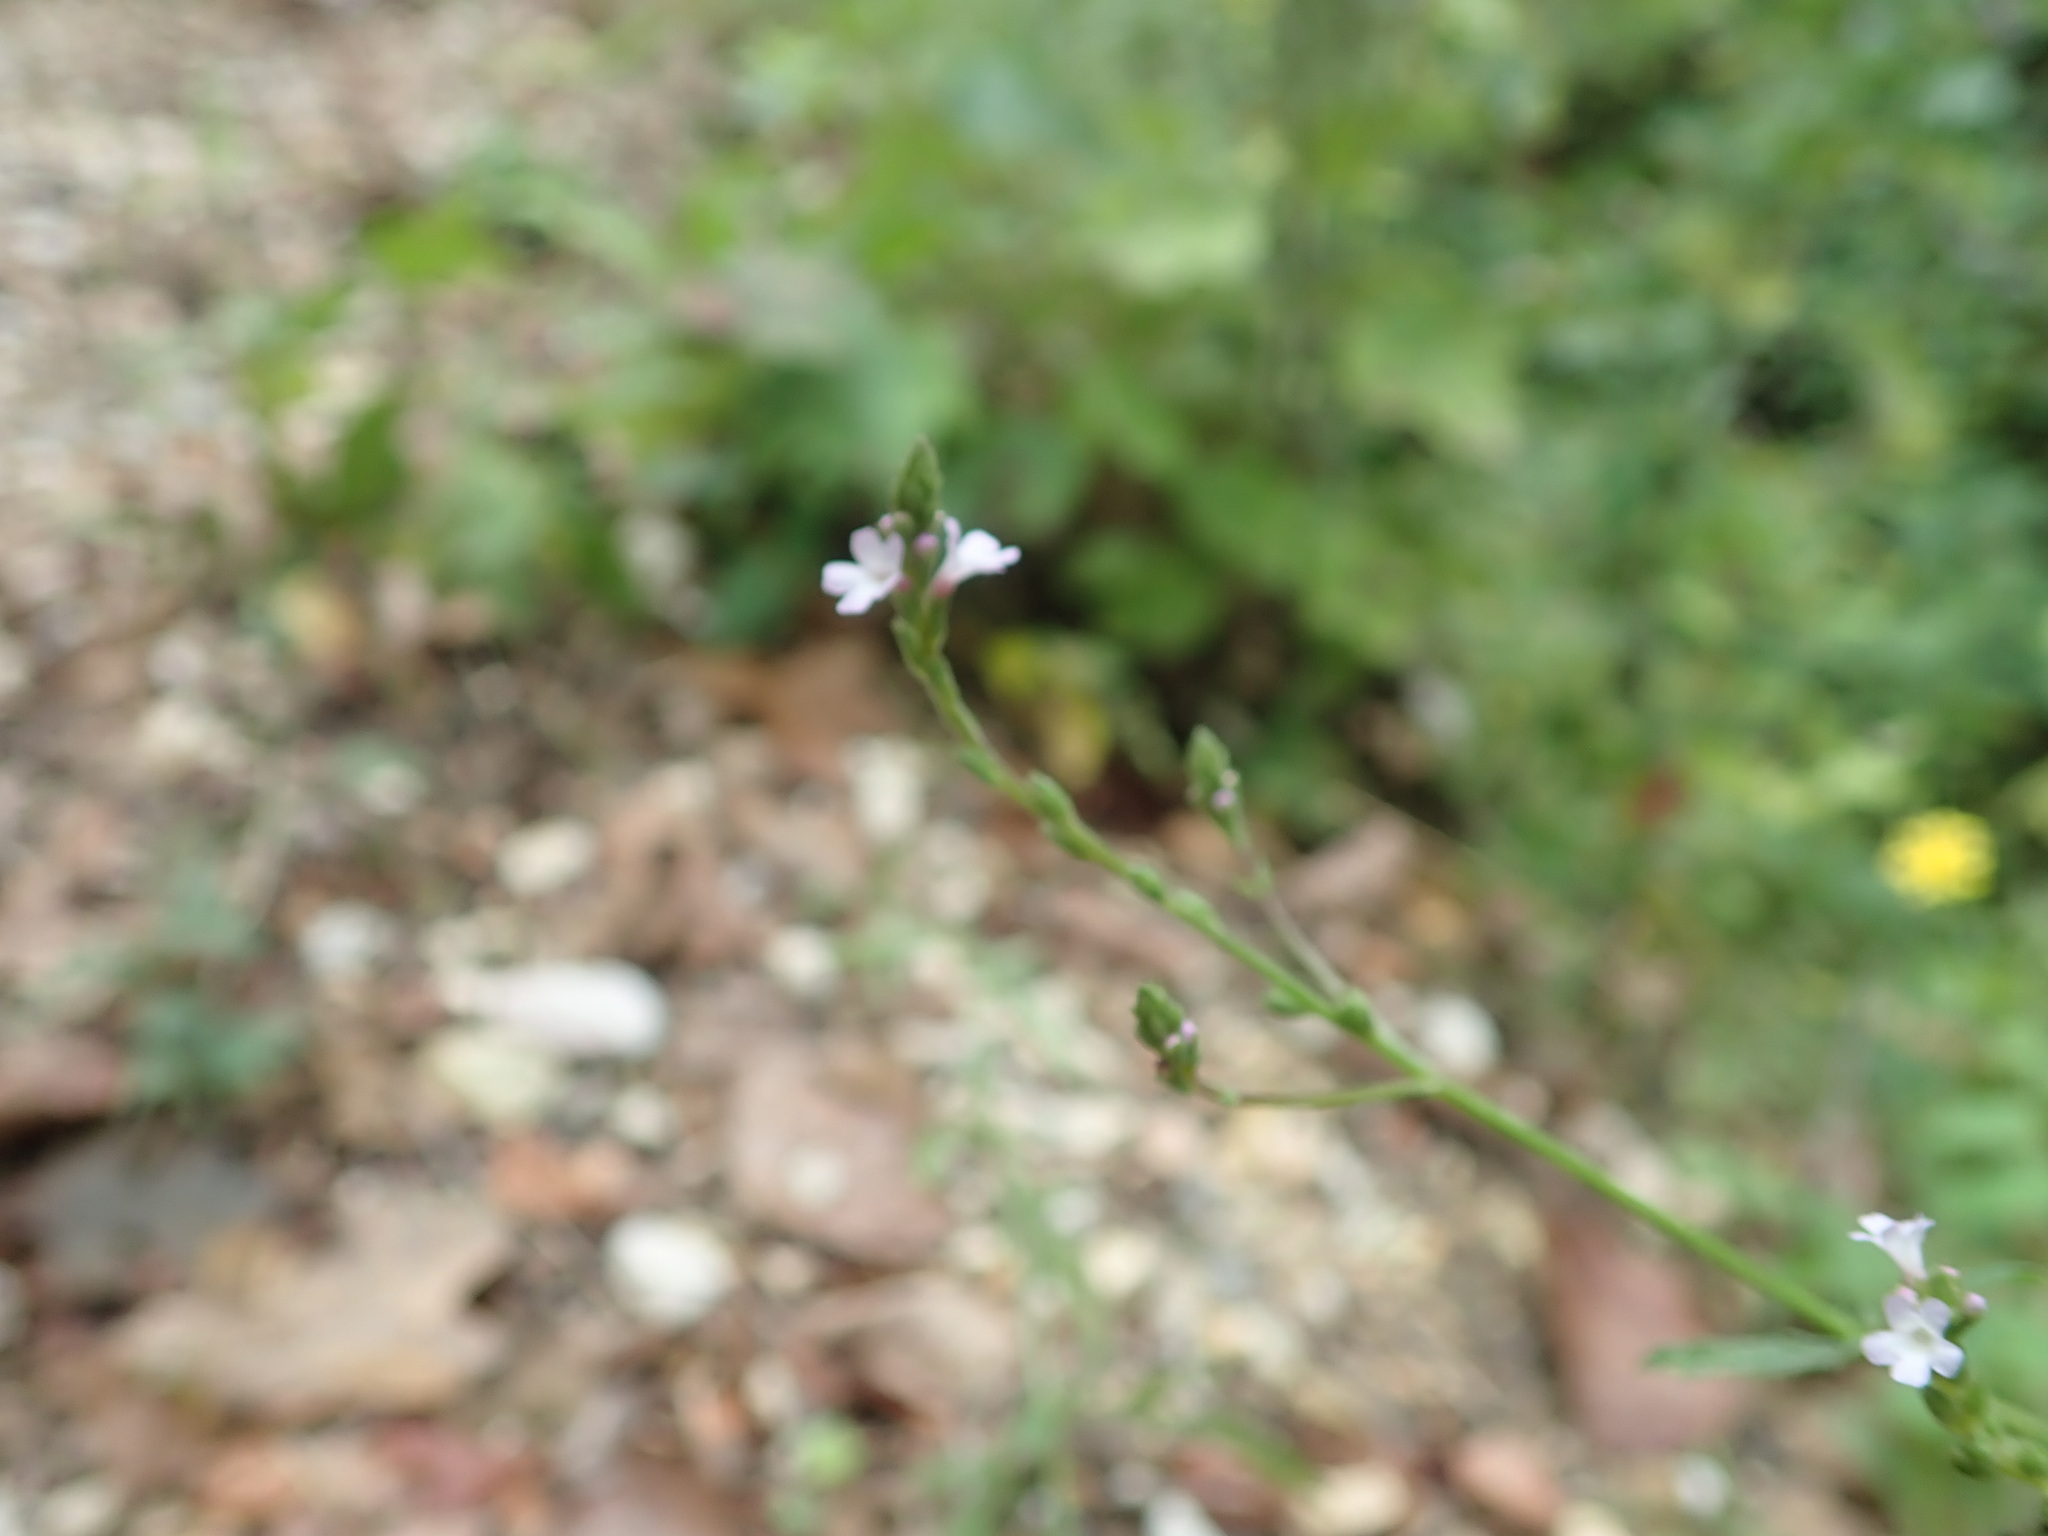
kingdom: Plantae
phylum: Tracheophyta
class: Magnoliopsida
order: Lamiales
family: Verbenaceae
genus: Verbena
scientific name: Verbena officinalis
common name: Vervain
